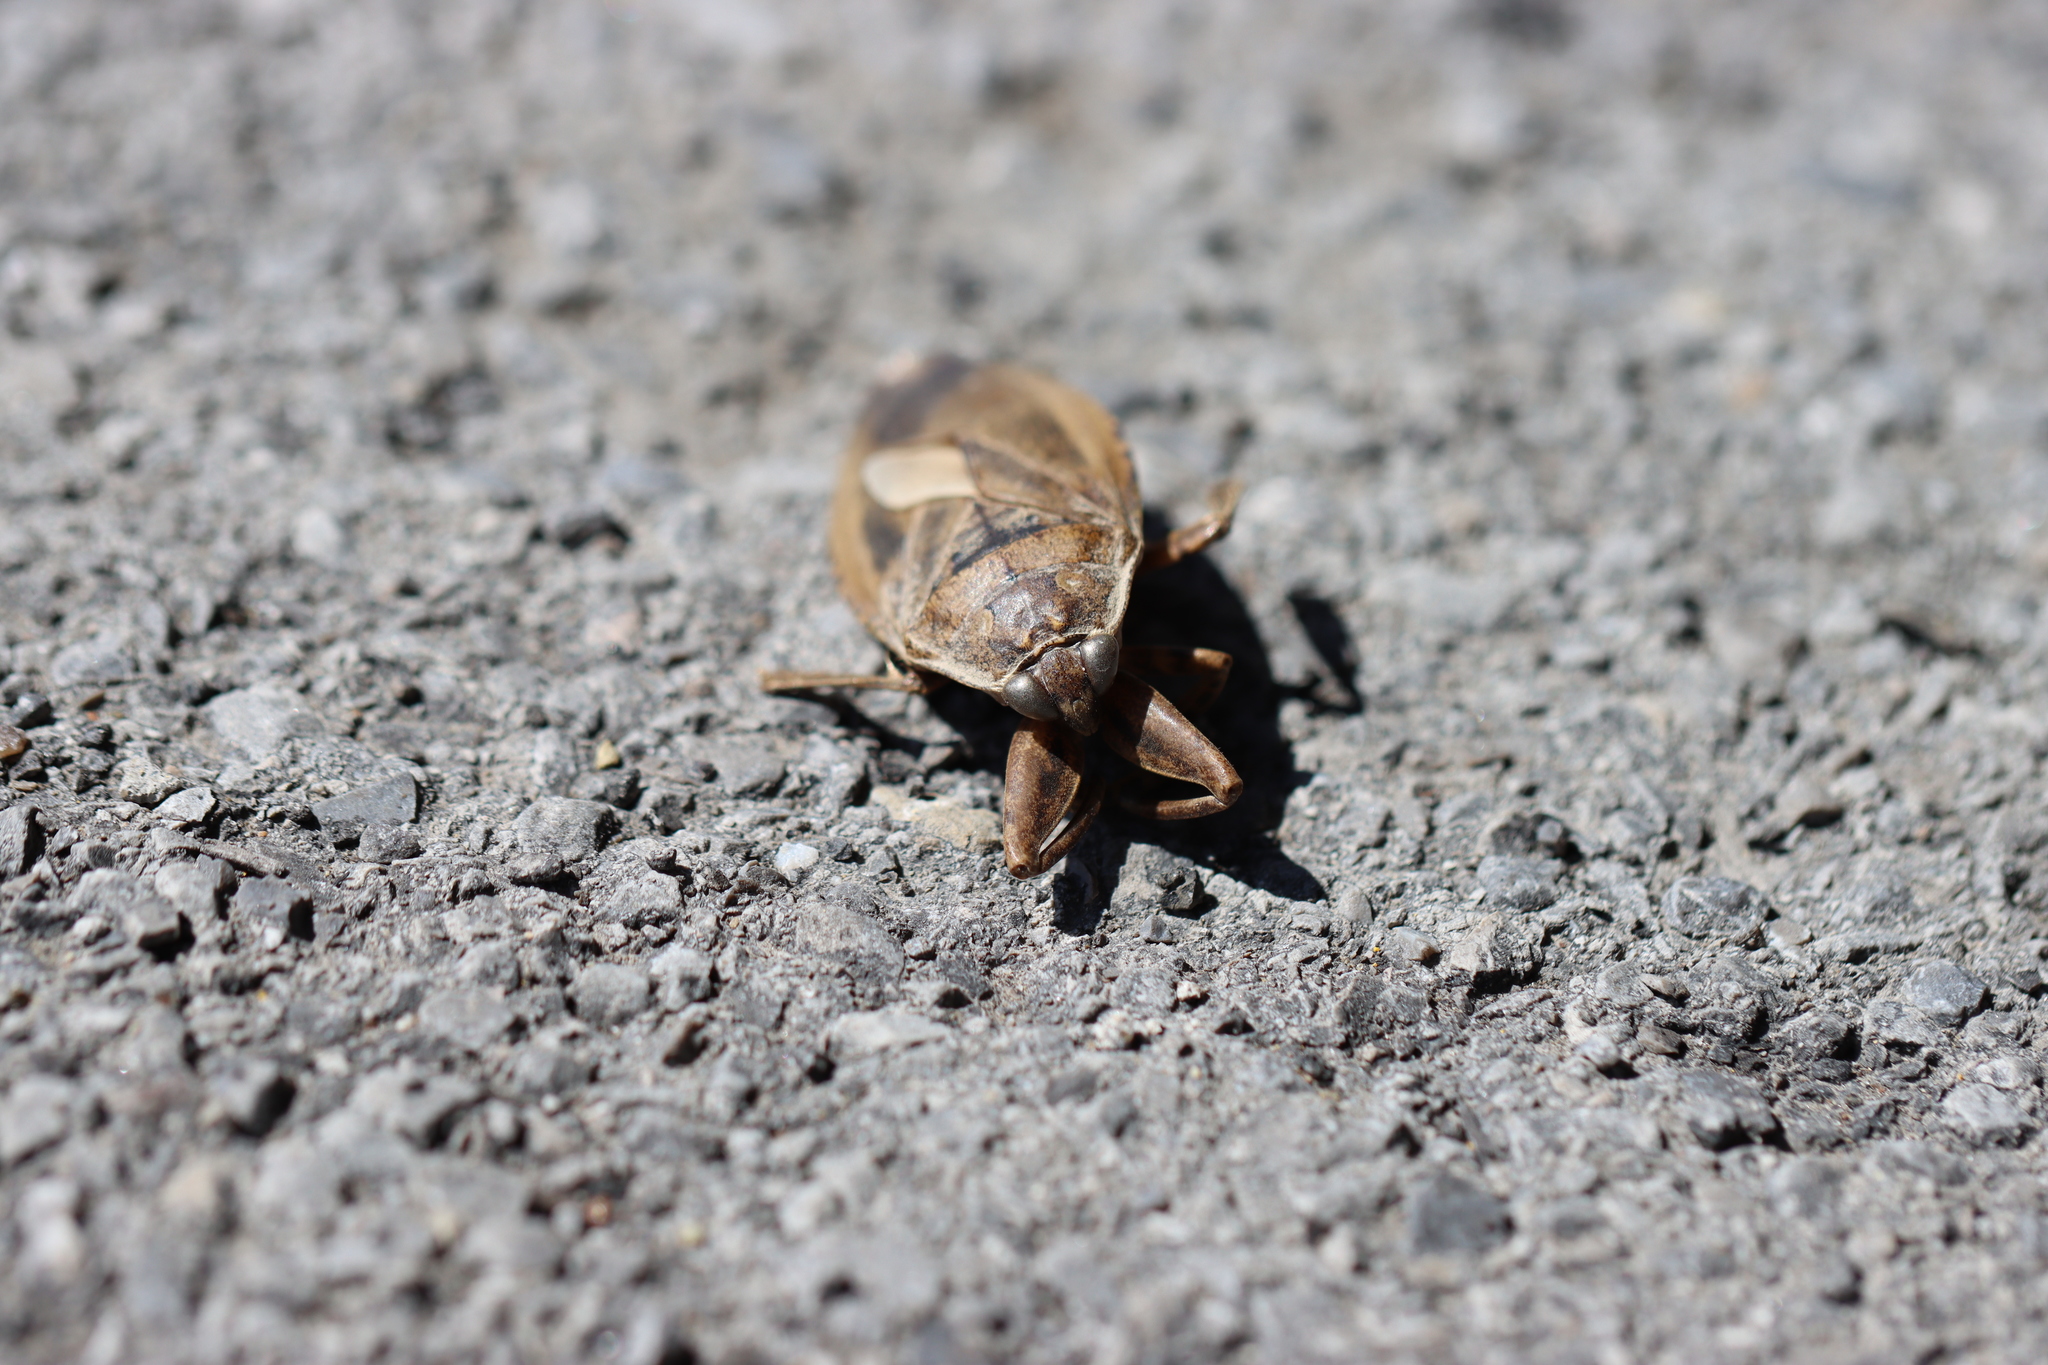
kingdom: Animalia
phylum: Arthropoda
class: Insecta
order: Hemiptera
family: Belostomatidae
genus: Lethocerus
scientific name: Lethocerus americanus
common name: Giant water bug
